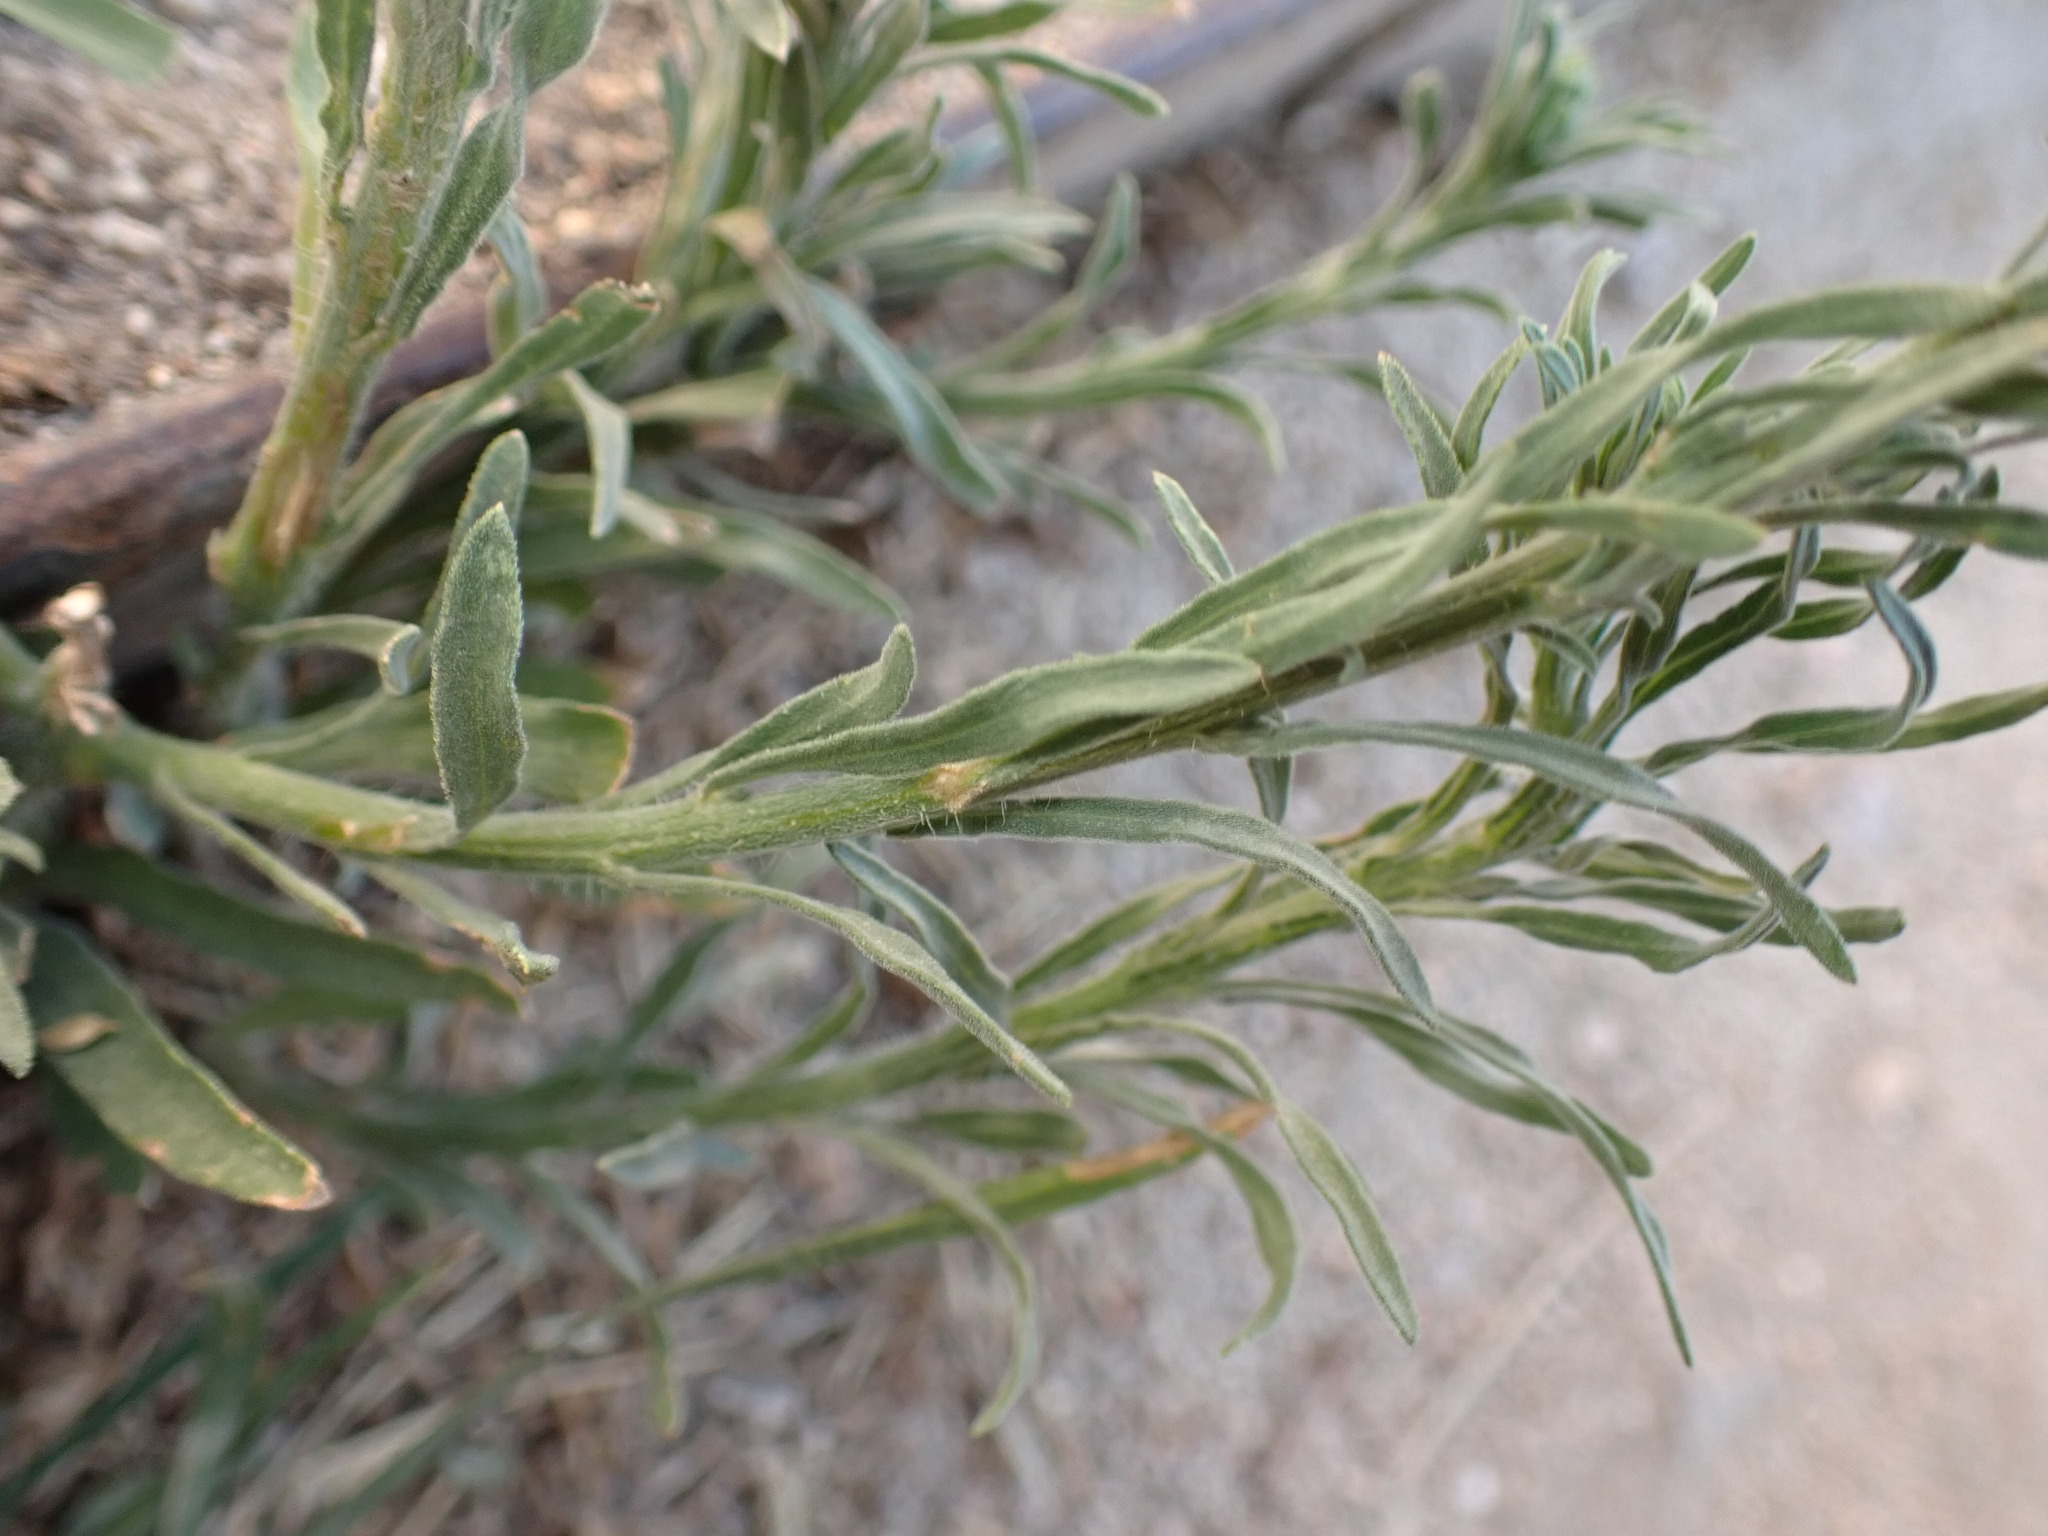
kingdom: Plantae
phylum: Tracheophyta
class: Magnoliopsida
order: Asterales
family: Asteraceae
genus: Erigeron
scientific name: Erigeron bonariensis
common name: Argentine fleabane
